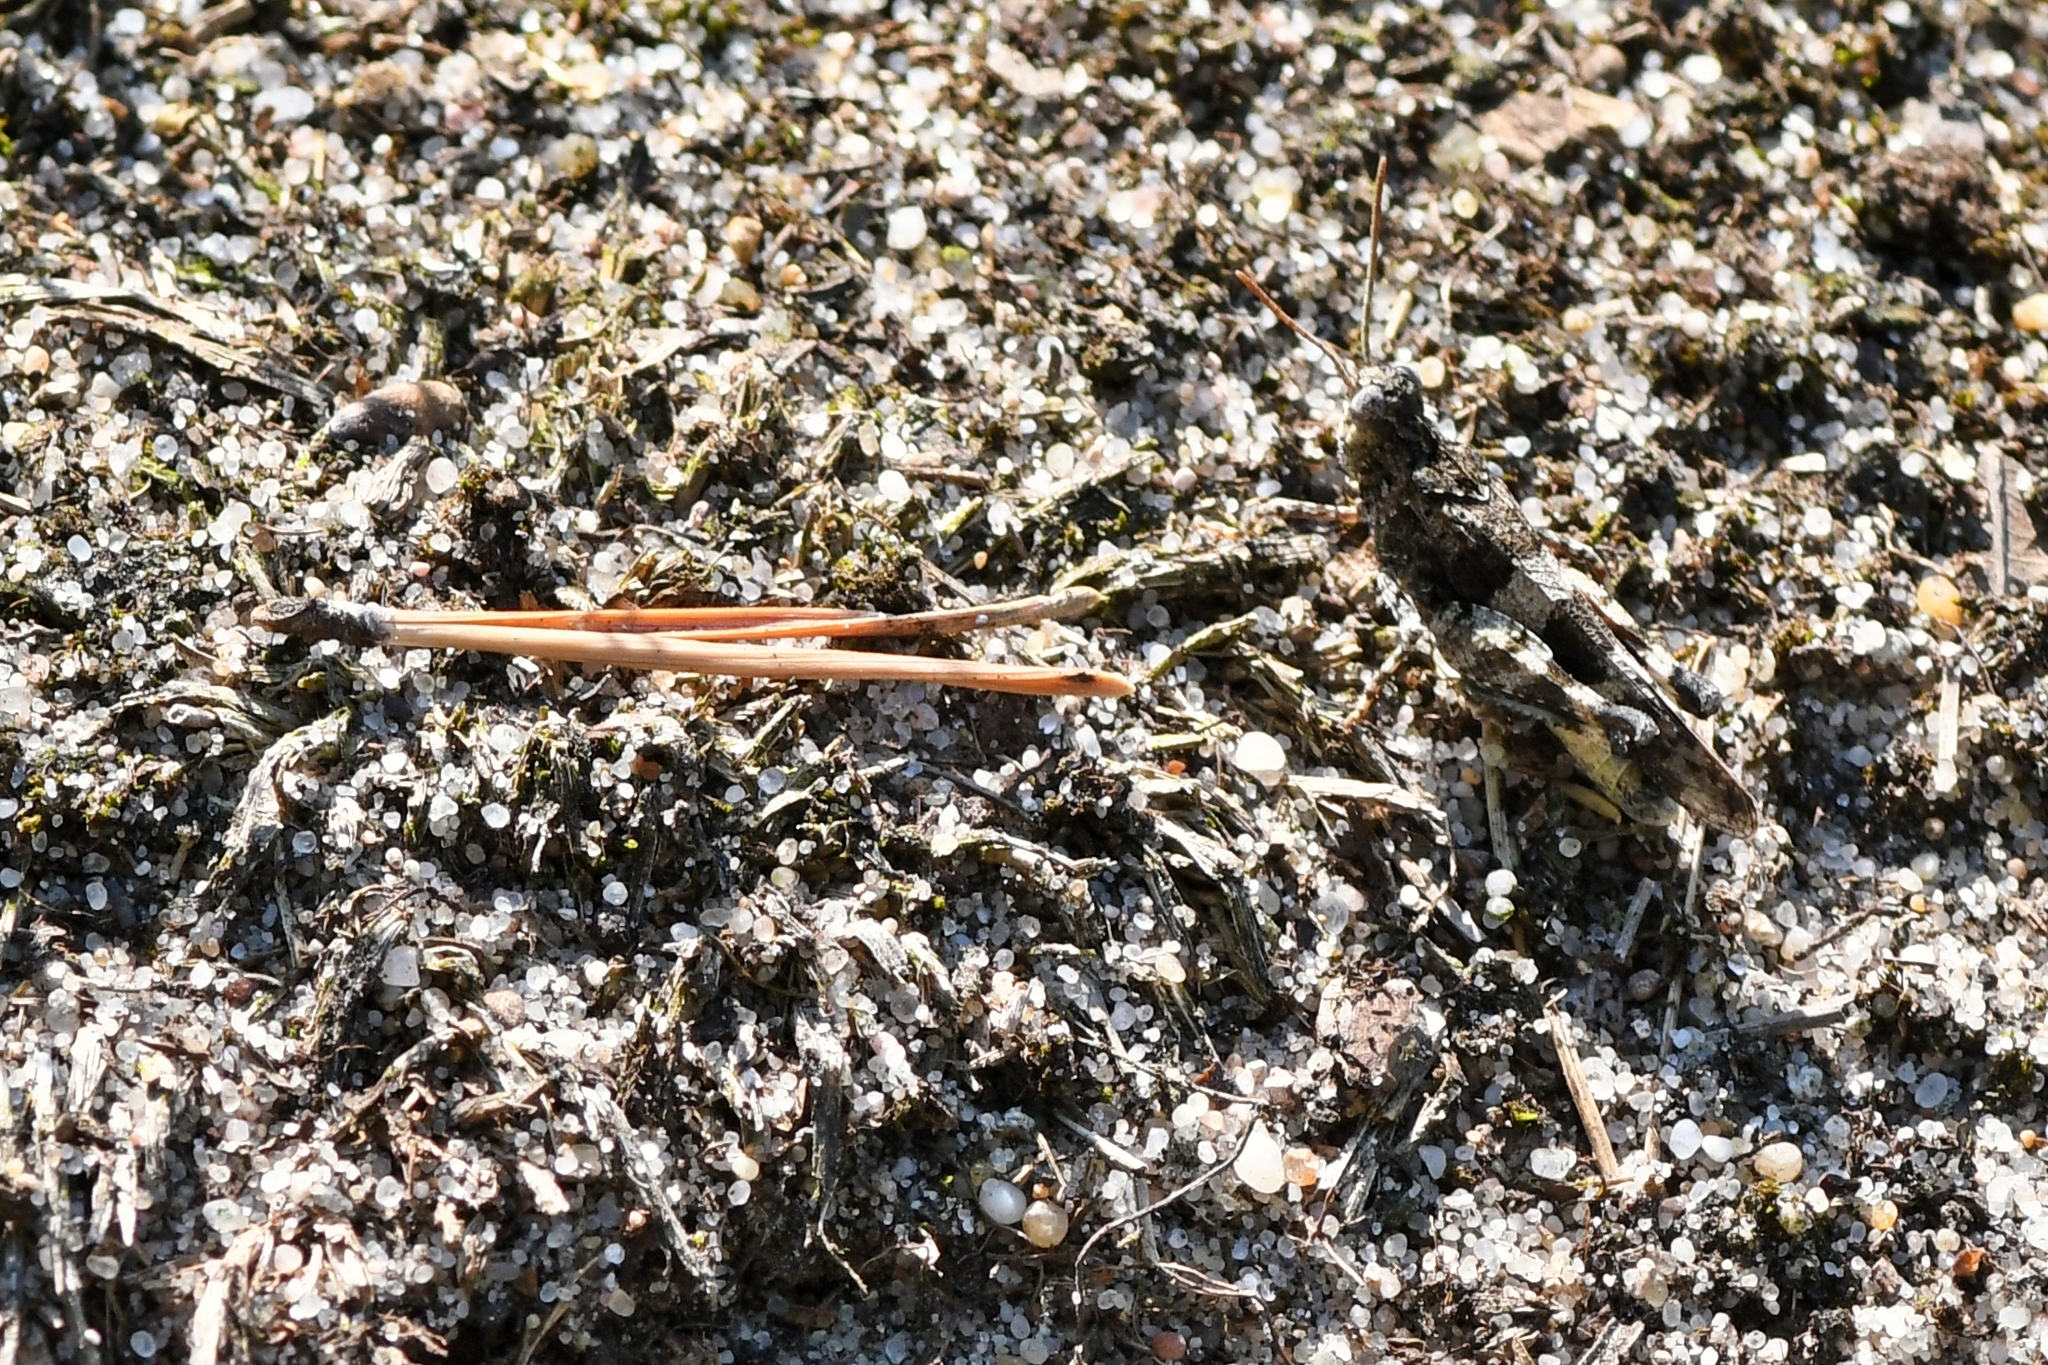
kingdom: Animalia
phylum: Arthropoda
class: Insecta
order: Orthoptera
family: Acrididae
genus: Oedipoda
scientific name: Oedipoda caerulescens
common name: Blue-winged grasshopper
